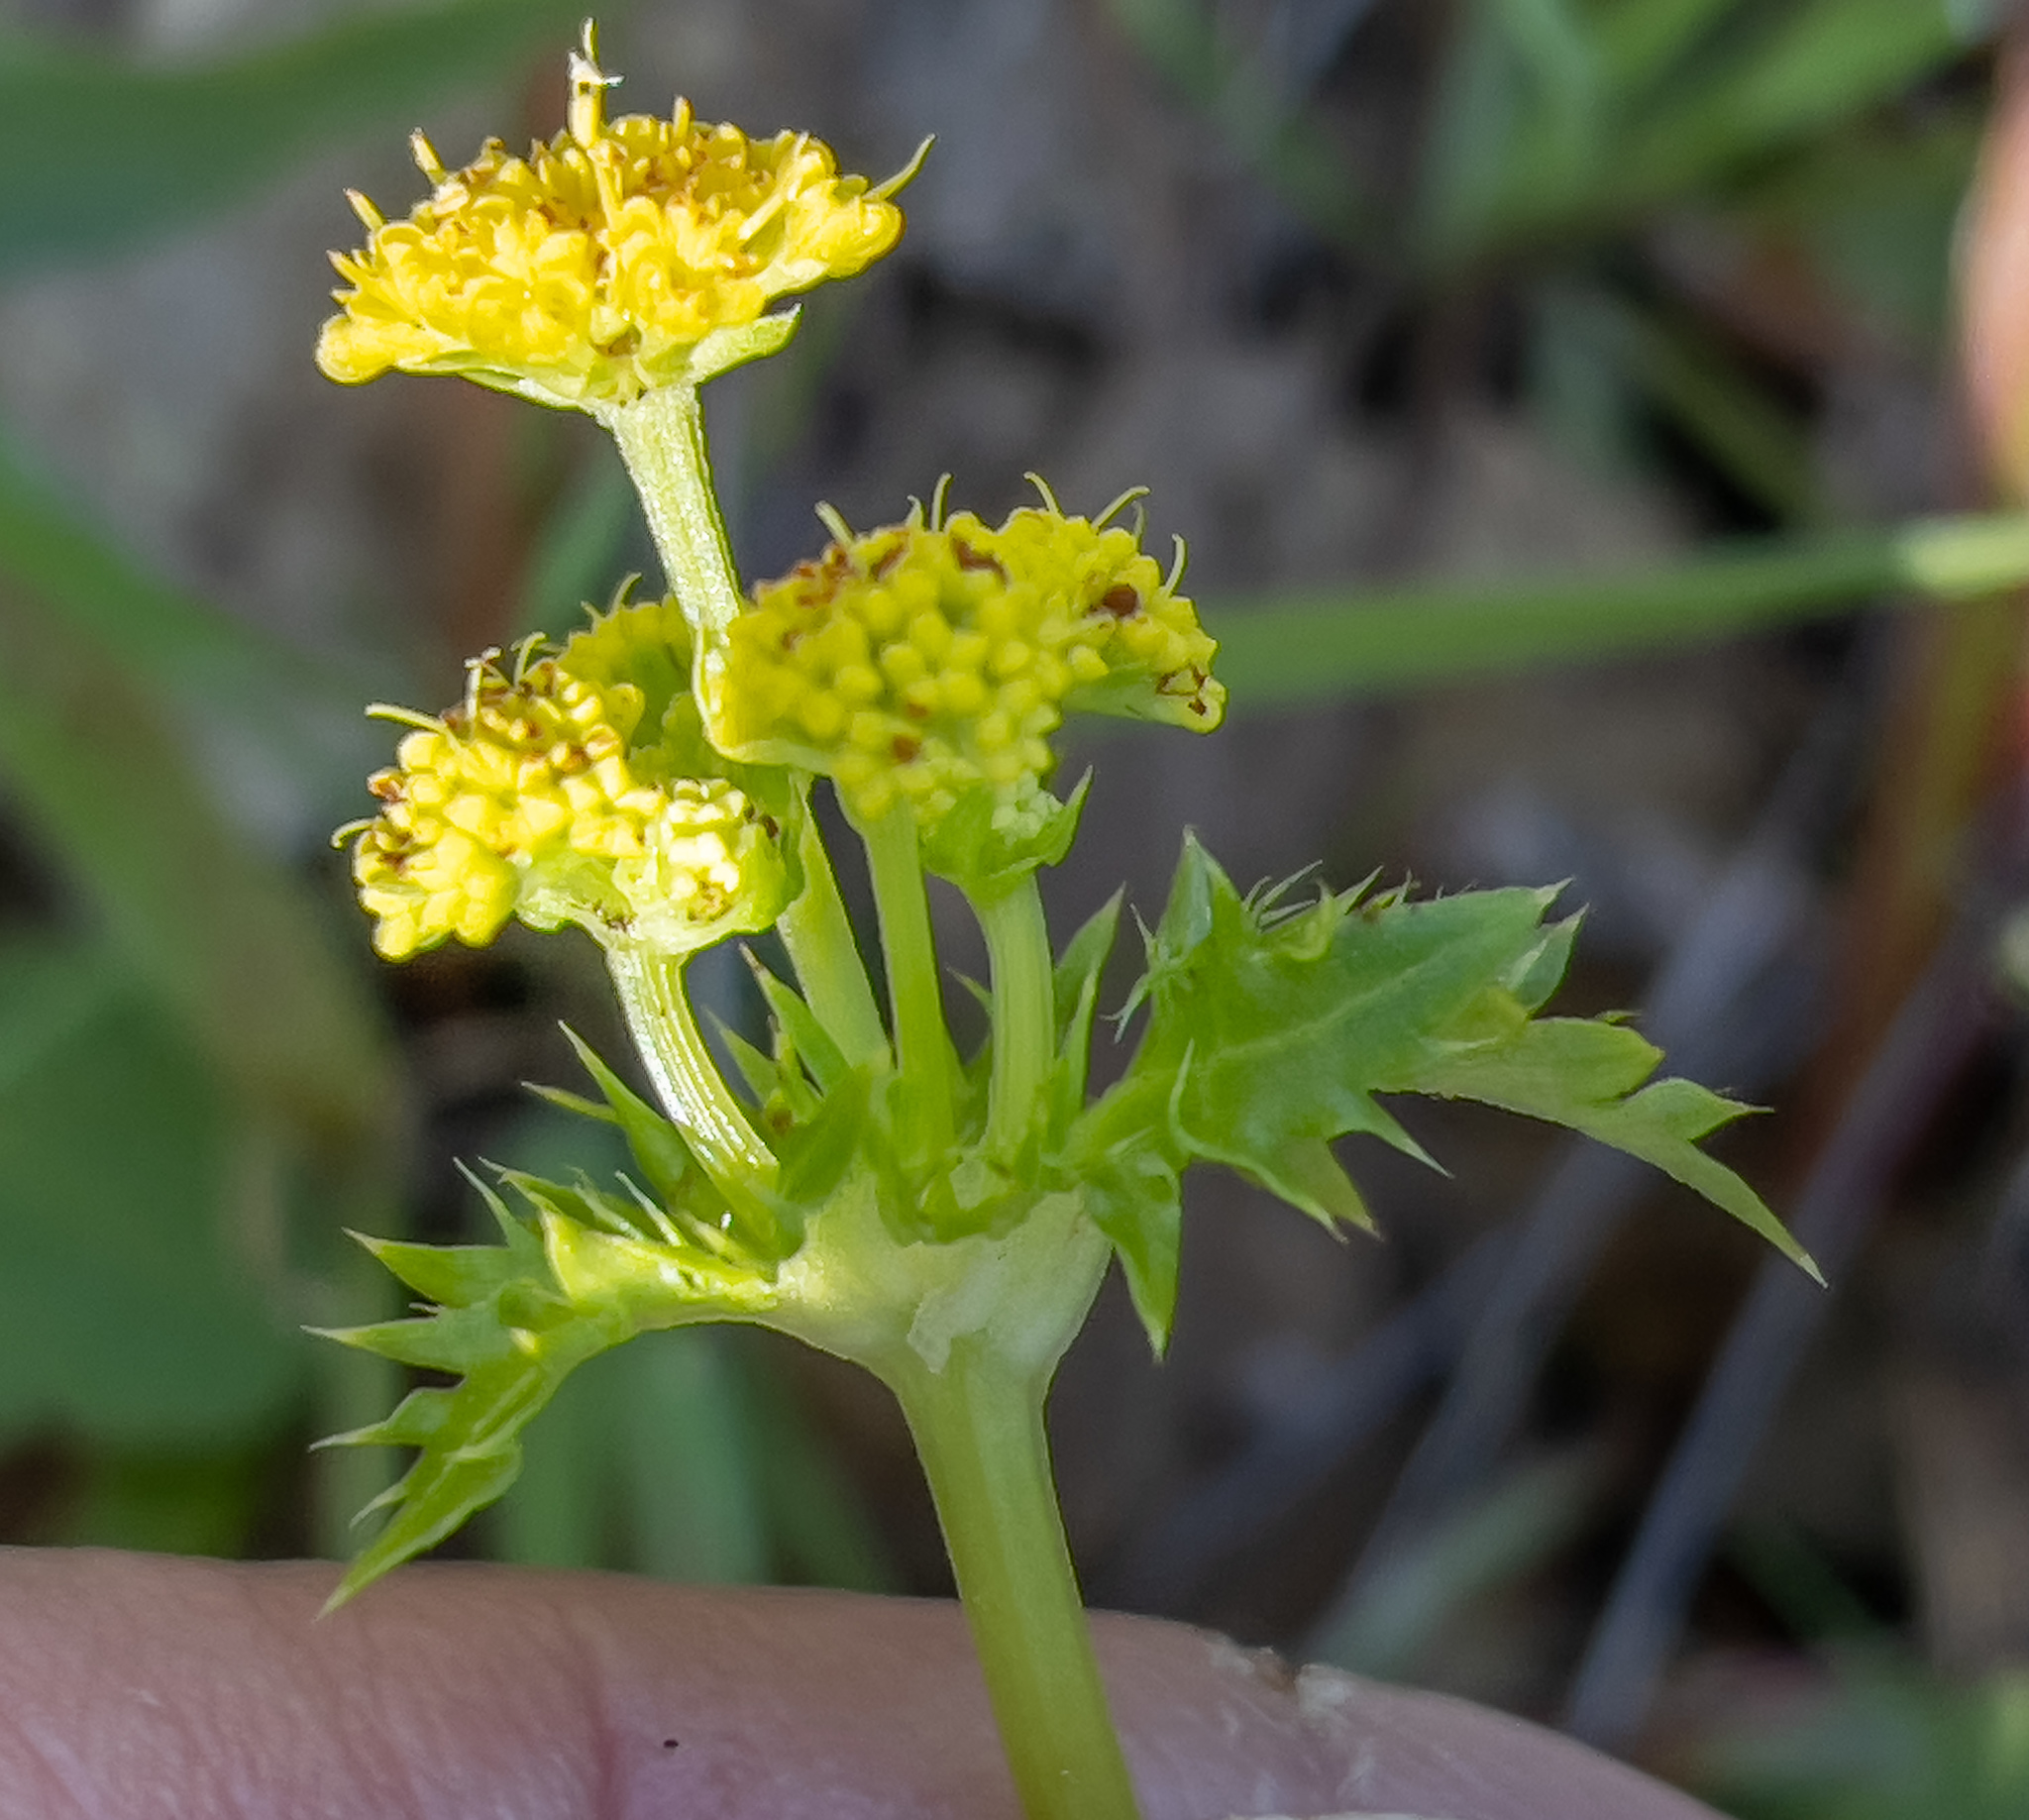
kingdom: Plantae
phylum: Tracheophyta
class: Magnoliopsida
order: Apiales
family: Apiaceae
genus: Sanicula
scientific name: Sanicula laciniata
